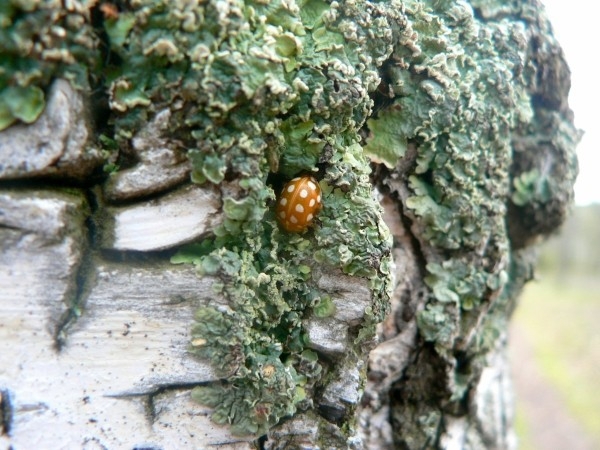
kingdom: Animalia
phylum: Arthropoda
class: Insecta
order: Coleoptera
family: Coccinellidae
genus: Halyzia
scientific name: Halyzia sedecimguttata
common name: Orange ladybird
